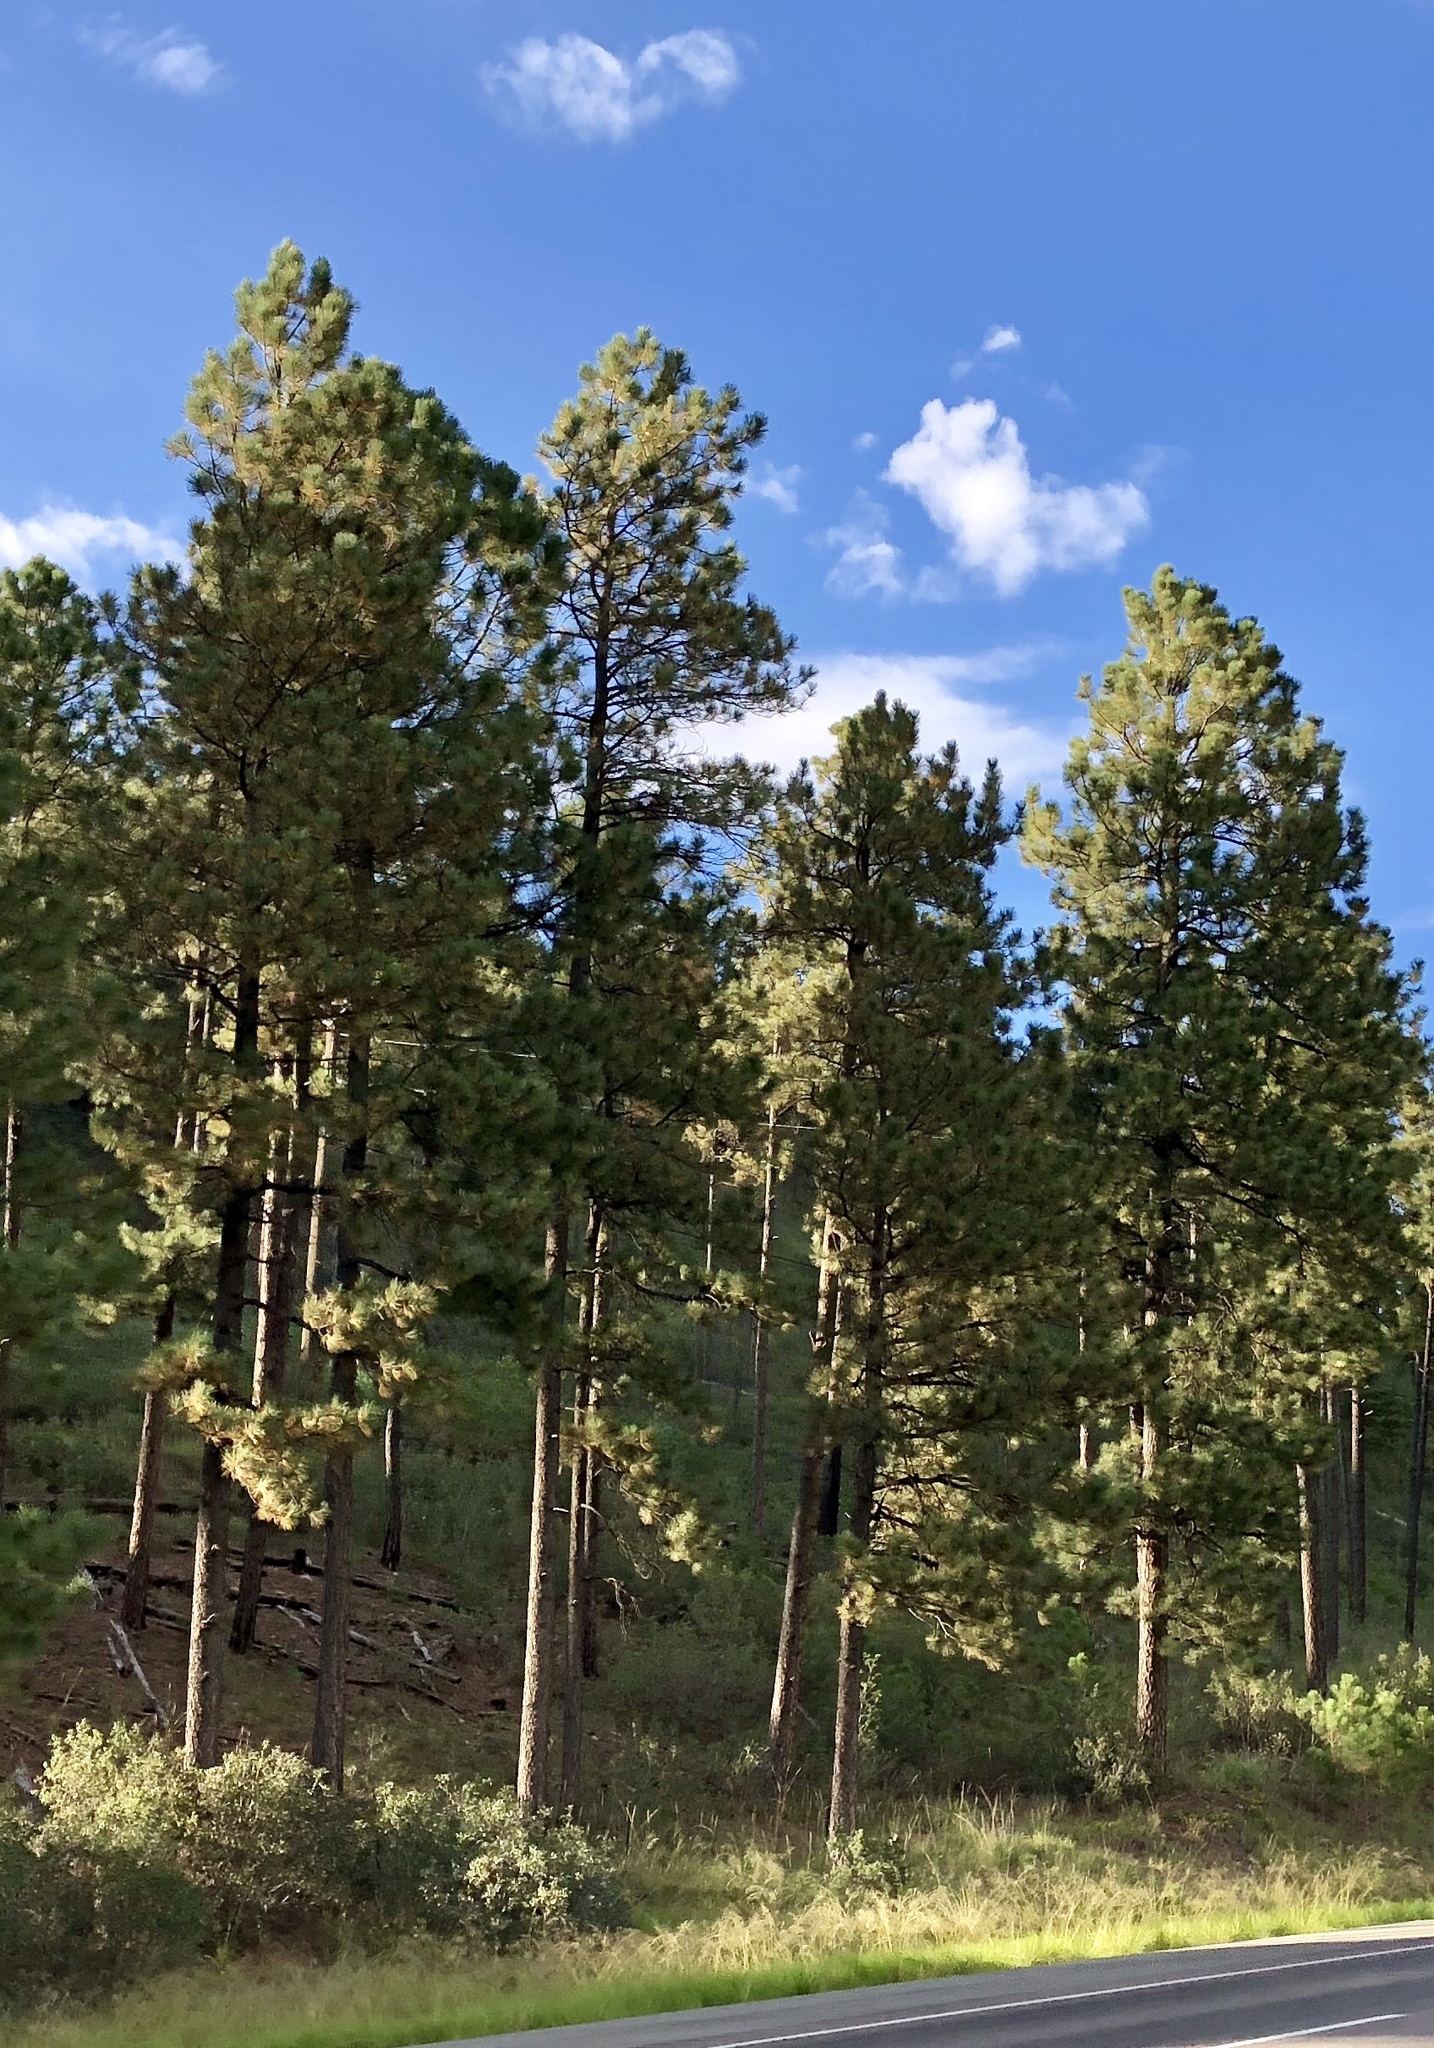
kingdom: Plantae
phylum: Tracheophyta
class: Pinopsida
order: Pinales
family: Pinaceae
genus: Pinus
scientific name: Pinus ponderosa
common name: Western yellow-pine
